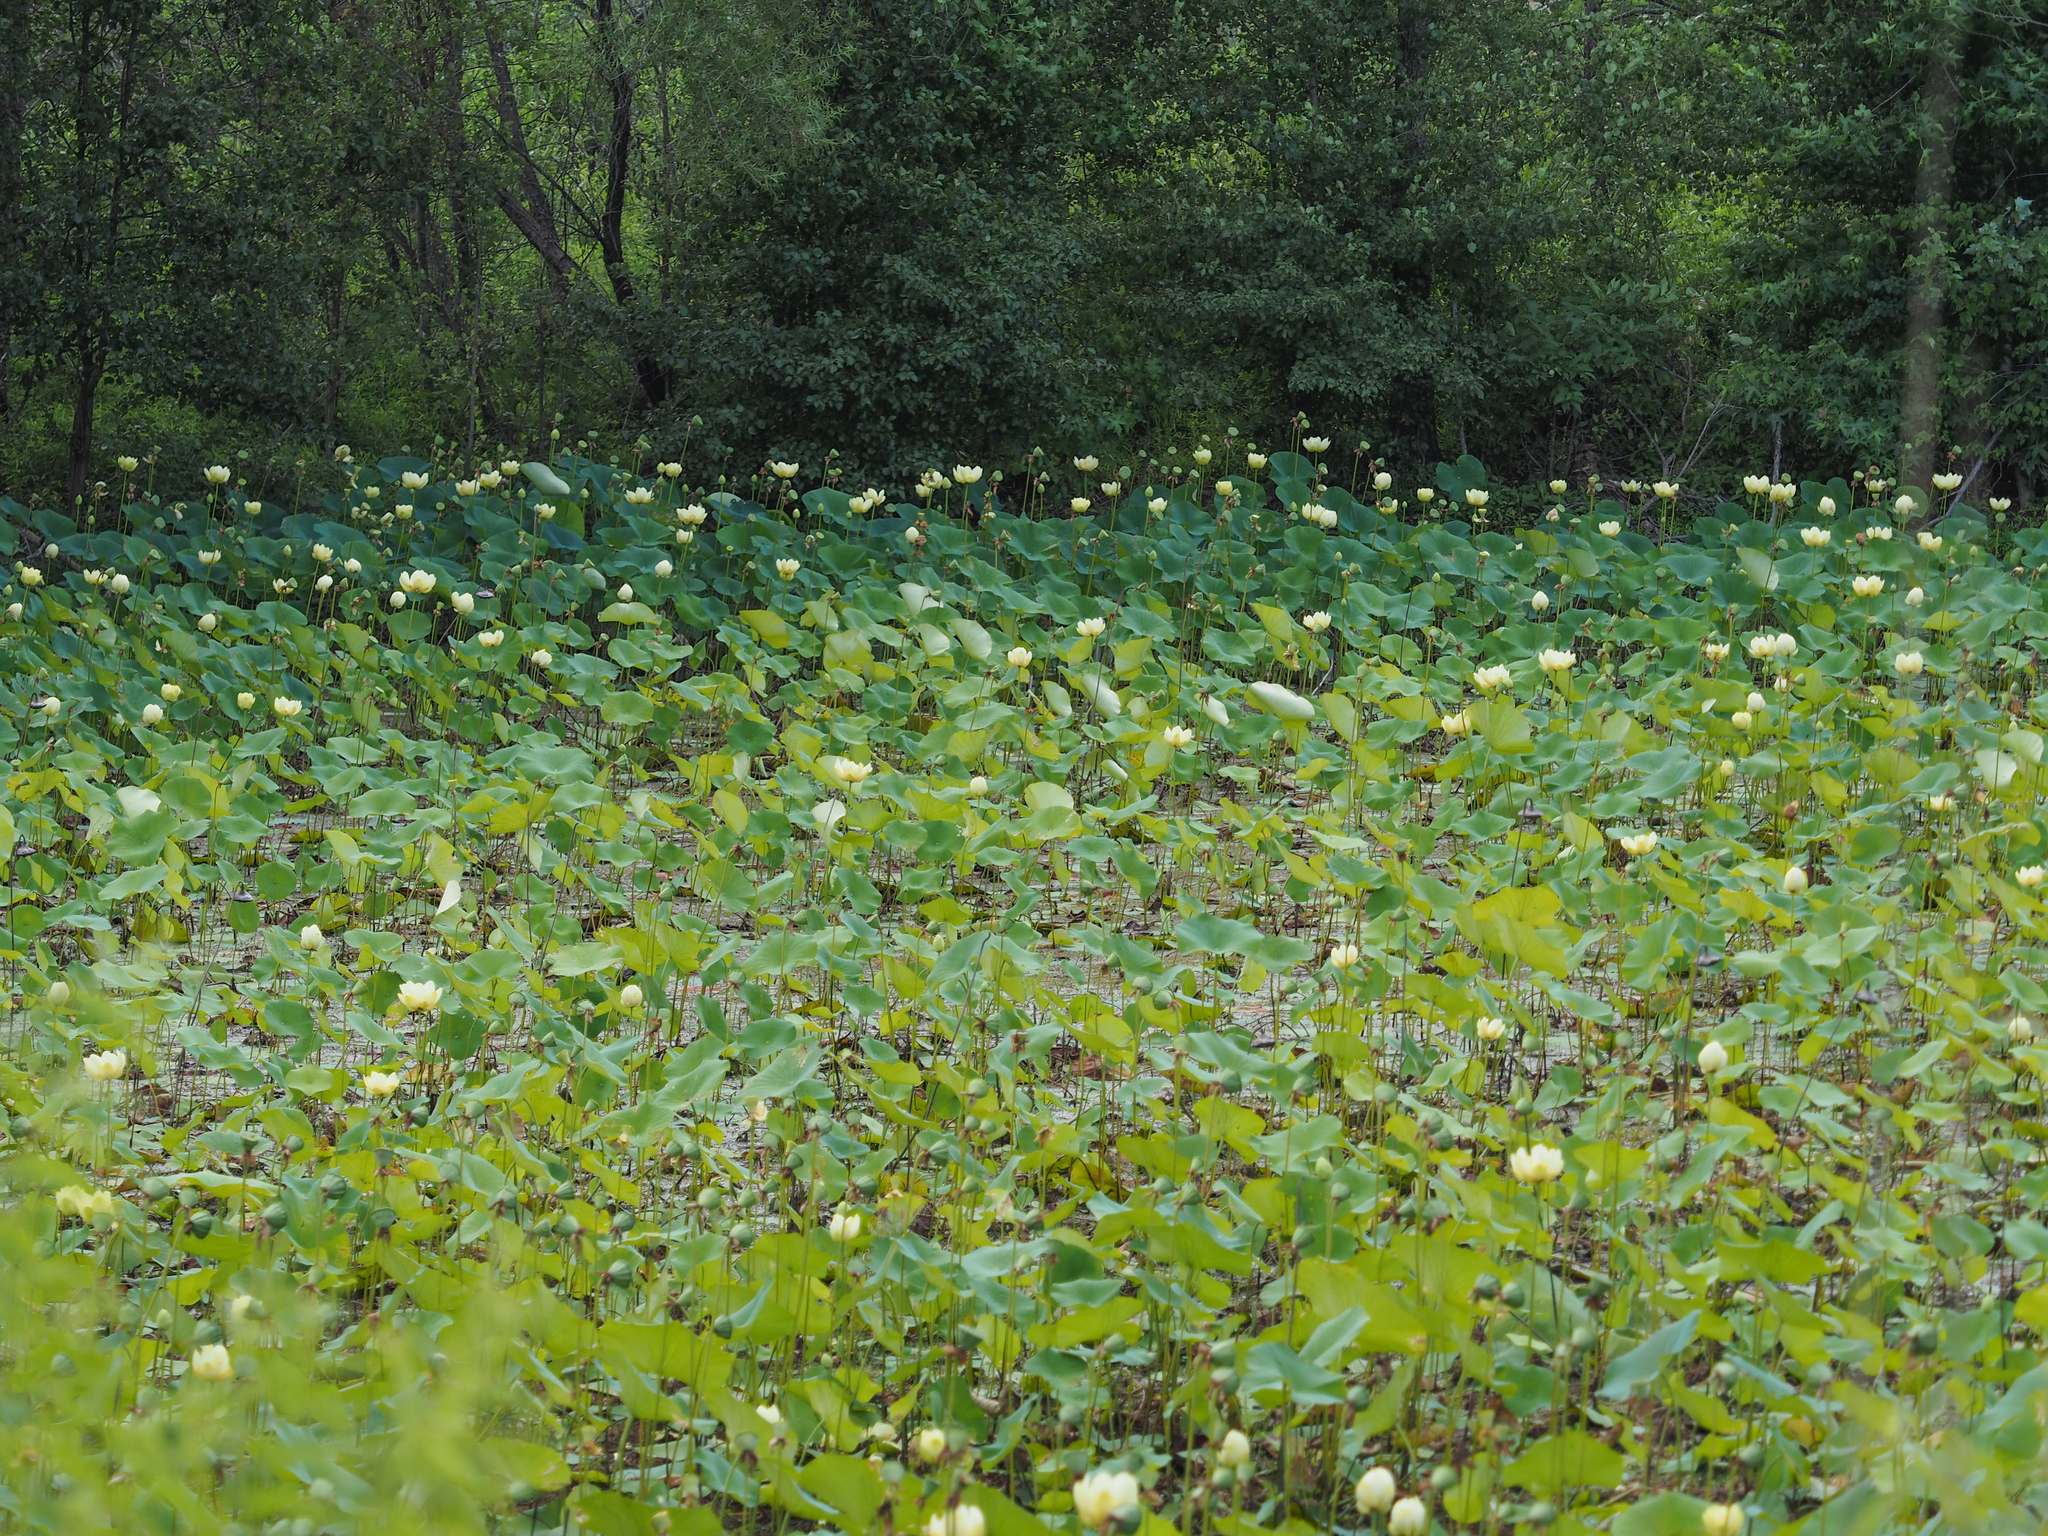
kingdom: Plantae
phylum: Tracheophyta
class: Magnoliopsida
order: Proteales
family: Nelumbonaceae
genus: Nelumbo
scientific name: Nelumbo lutea
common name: American lotus
